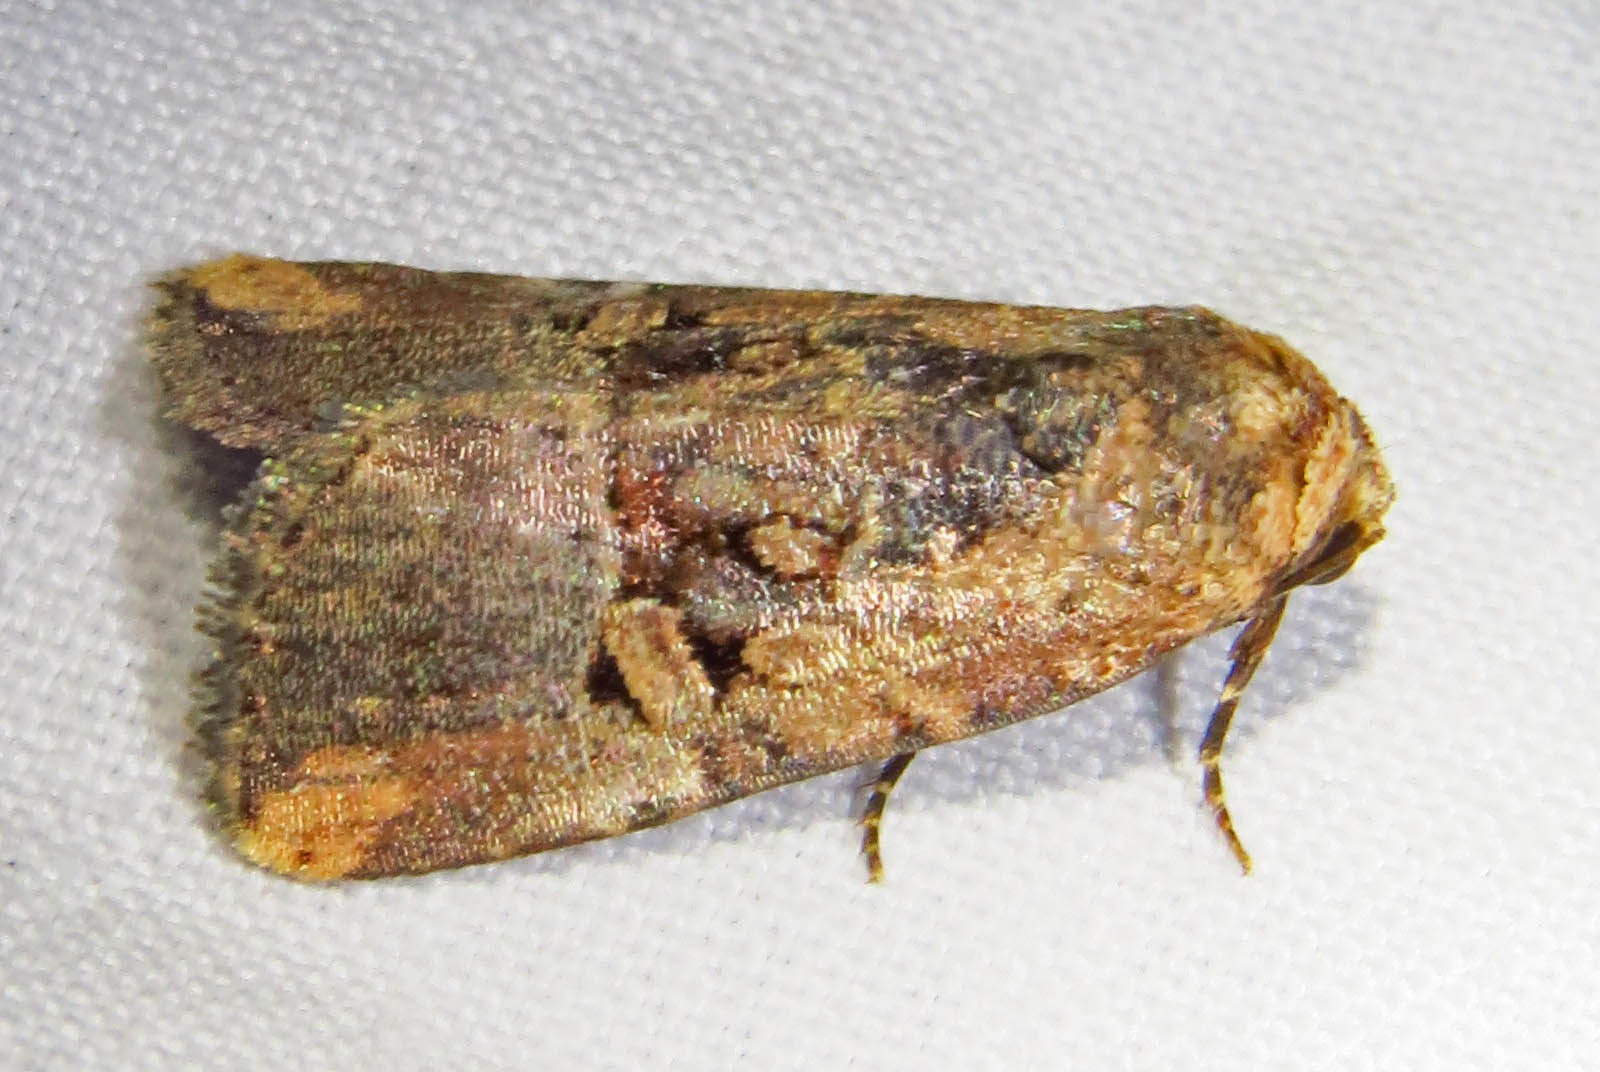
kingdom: Animalia
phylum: Arthropoda
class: Insecta
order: Lepidoptera
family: Noctuidae
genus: Elaphria
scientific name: Elaphria chalcedonia
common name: Chalcedony midget
